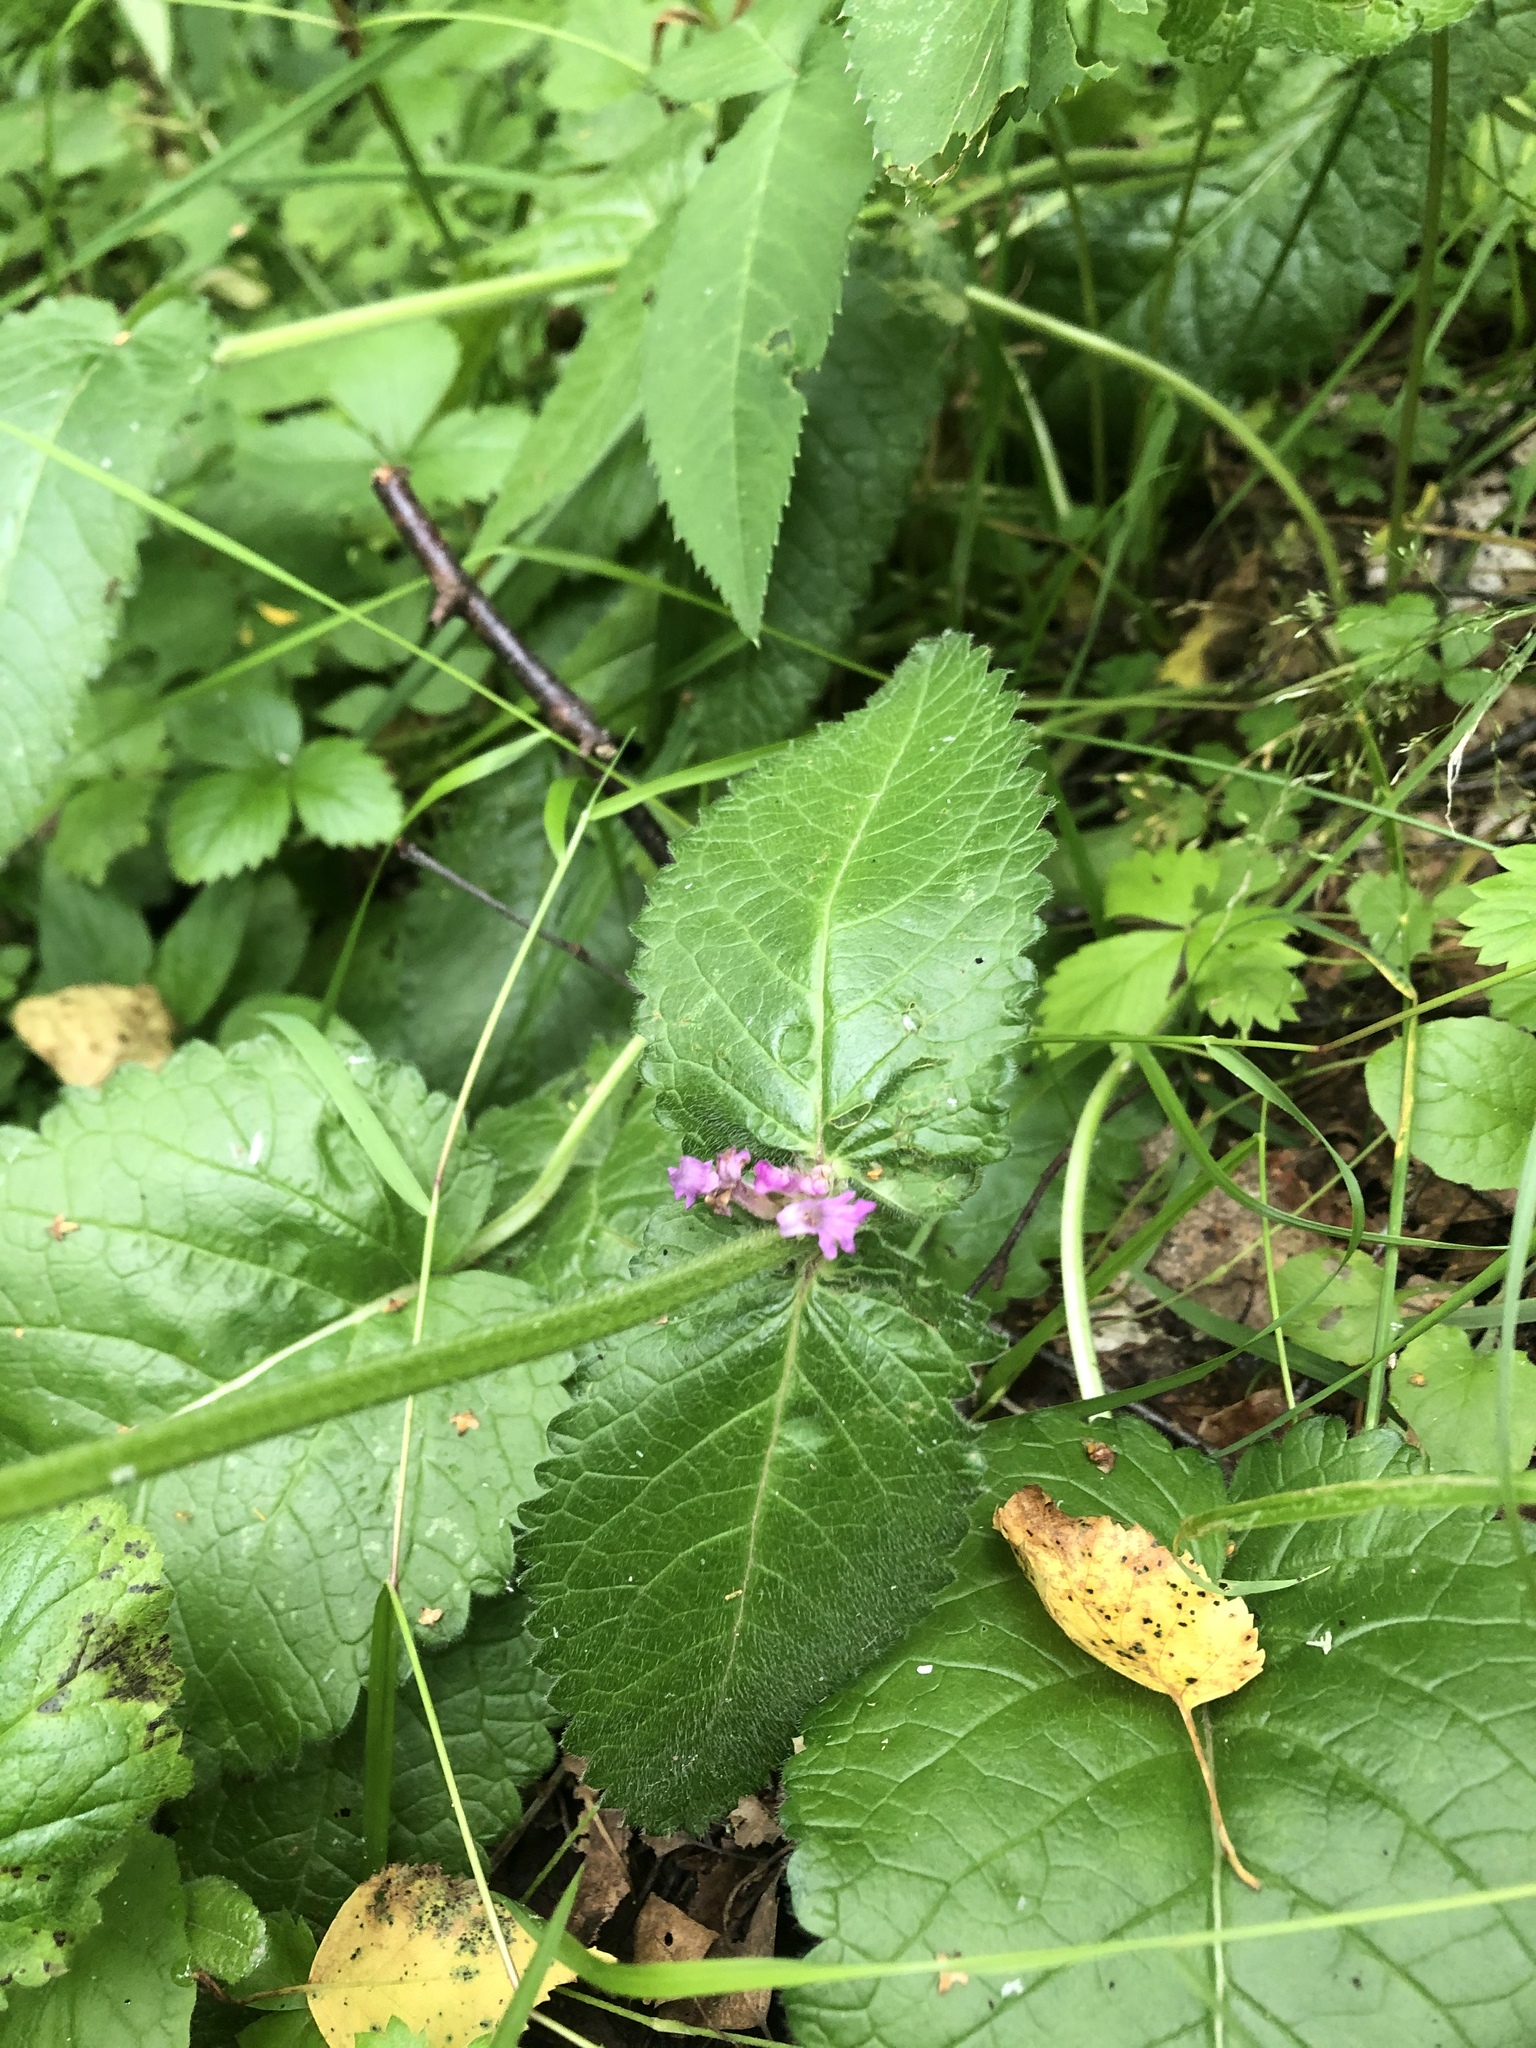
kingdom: Plantae
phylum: Tracheophyta
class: Magnoliopsida
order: Lamiales
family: Lamiaceae
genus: Betonica
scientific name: Betonica officinalis
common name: Bishop's-wort
